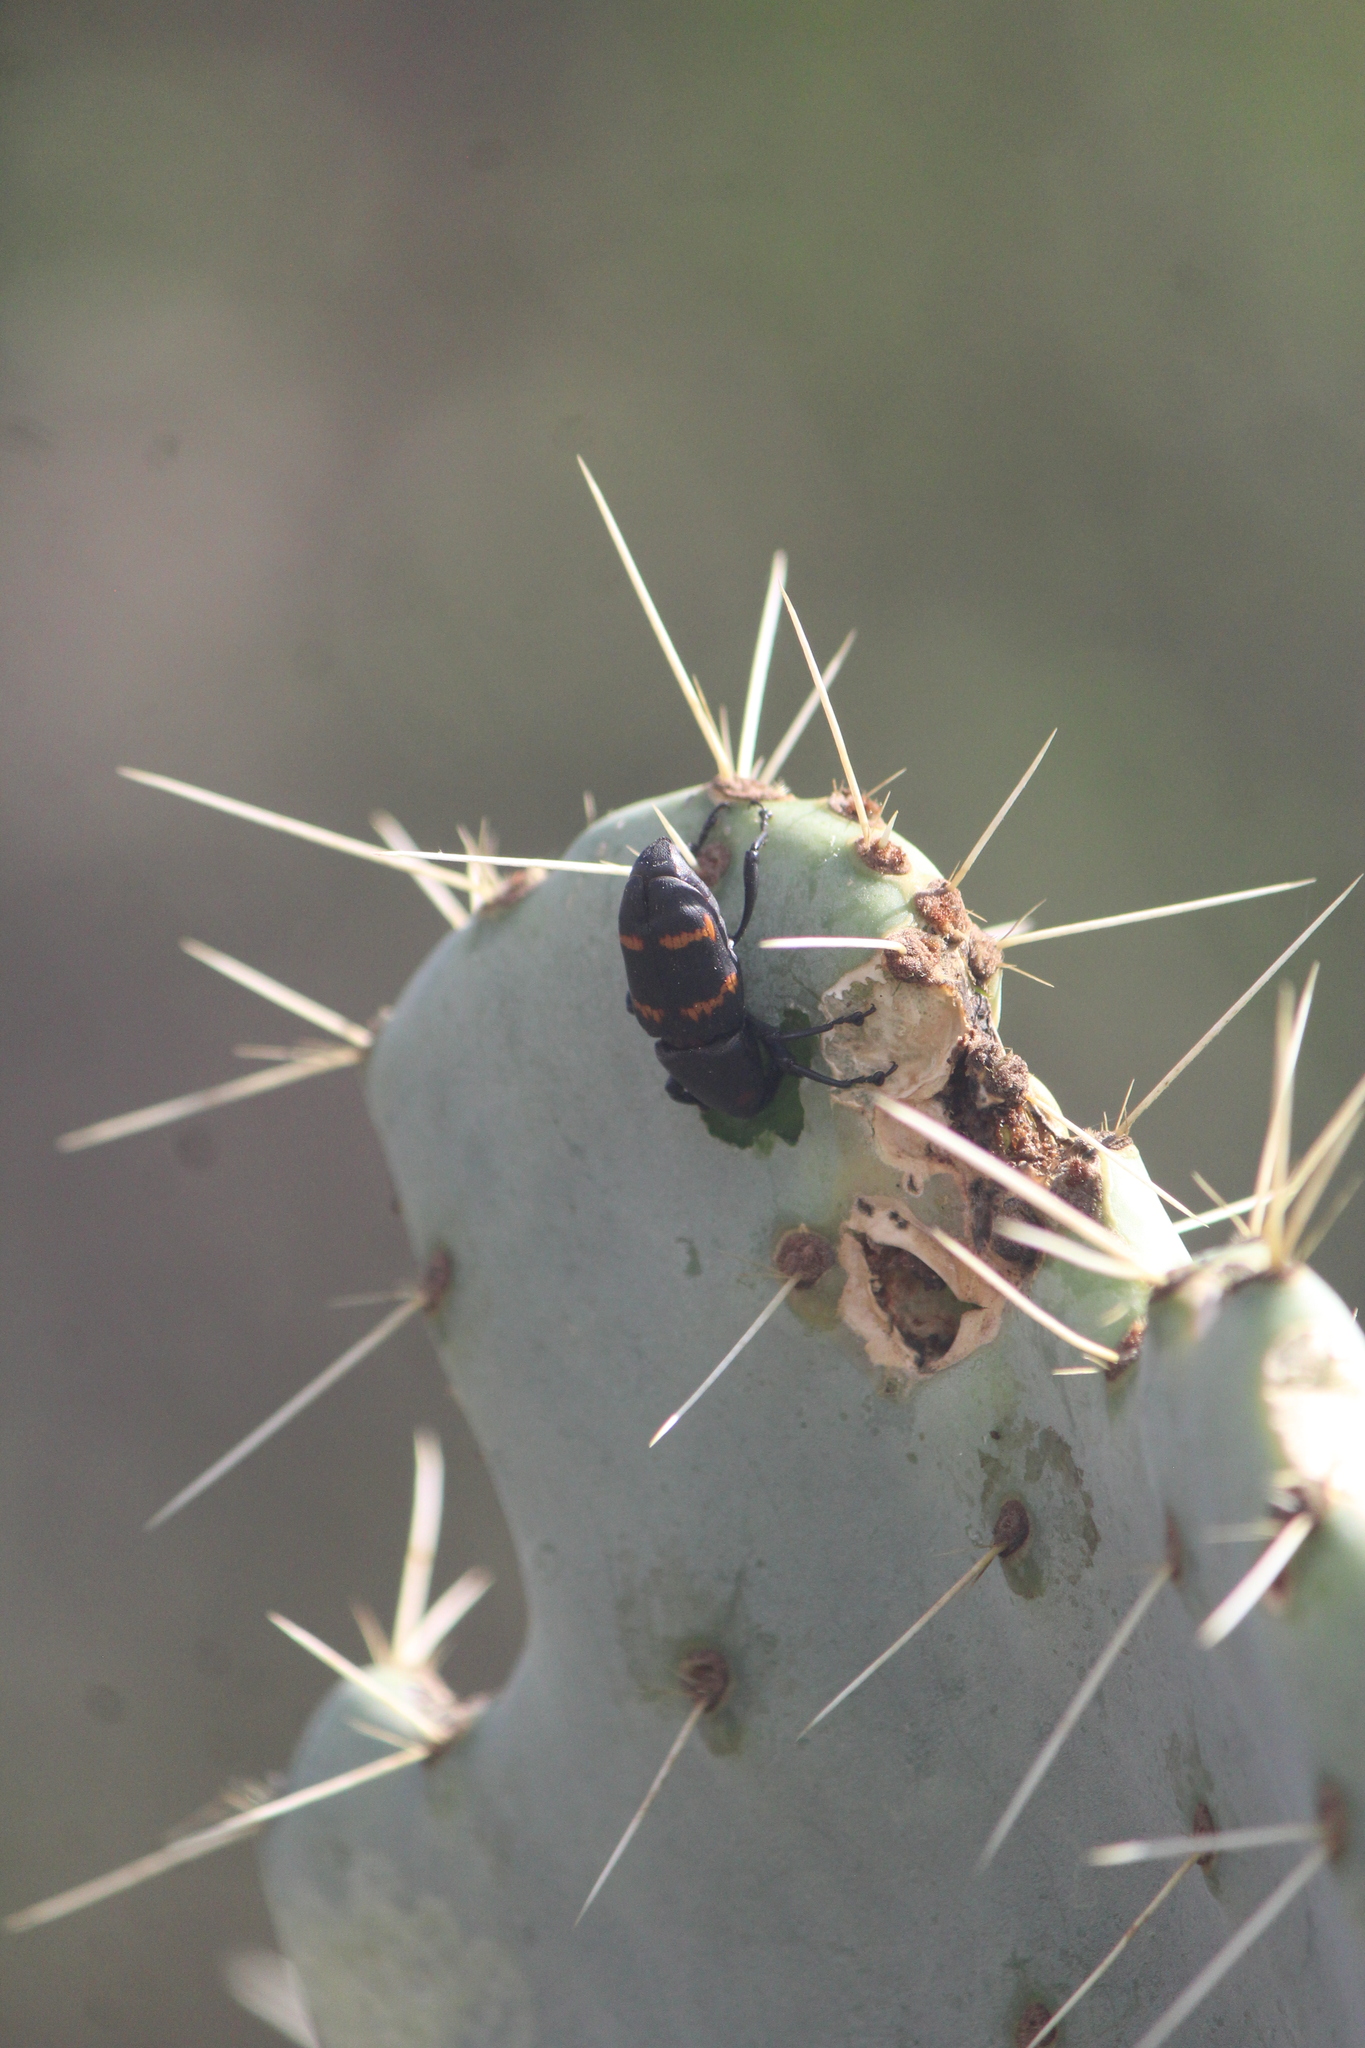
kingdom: Animalia
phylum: Arthropoda
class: Insecta
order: Coleoptera
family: Dryophthoridae
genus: Cactophagus
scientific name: Cactophagus spinolae
